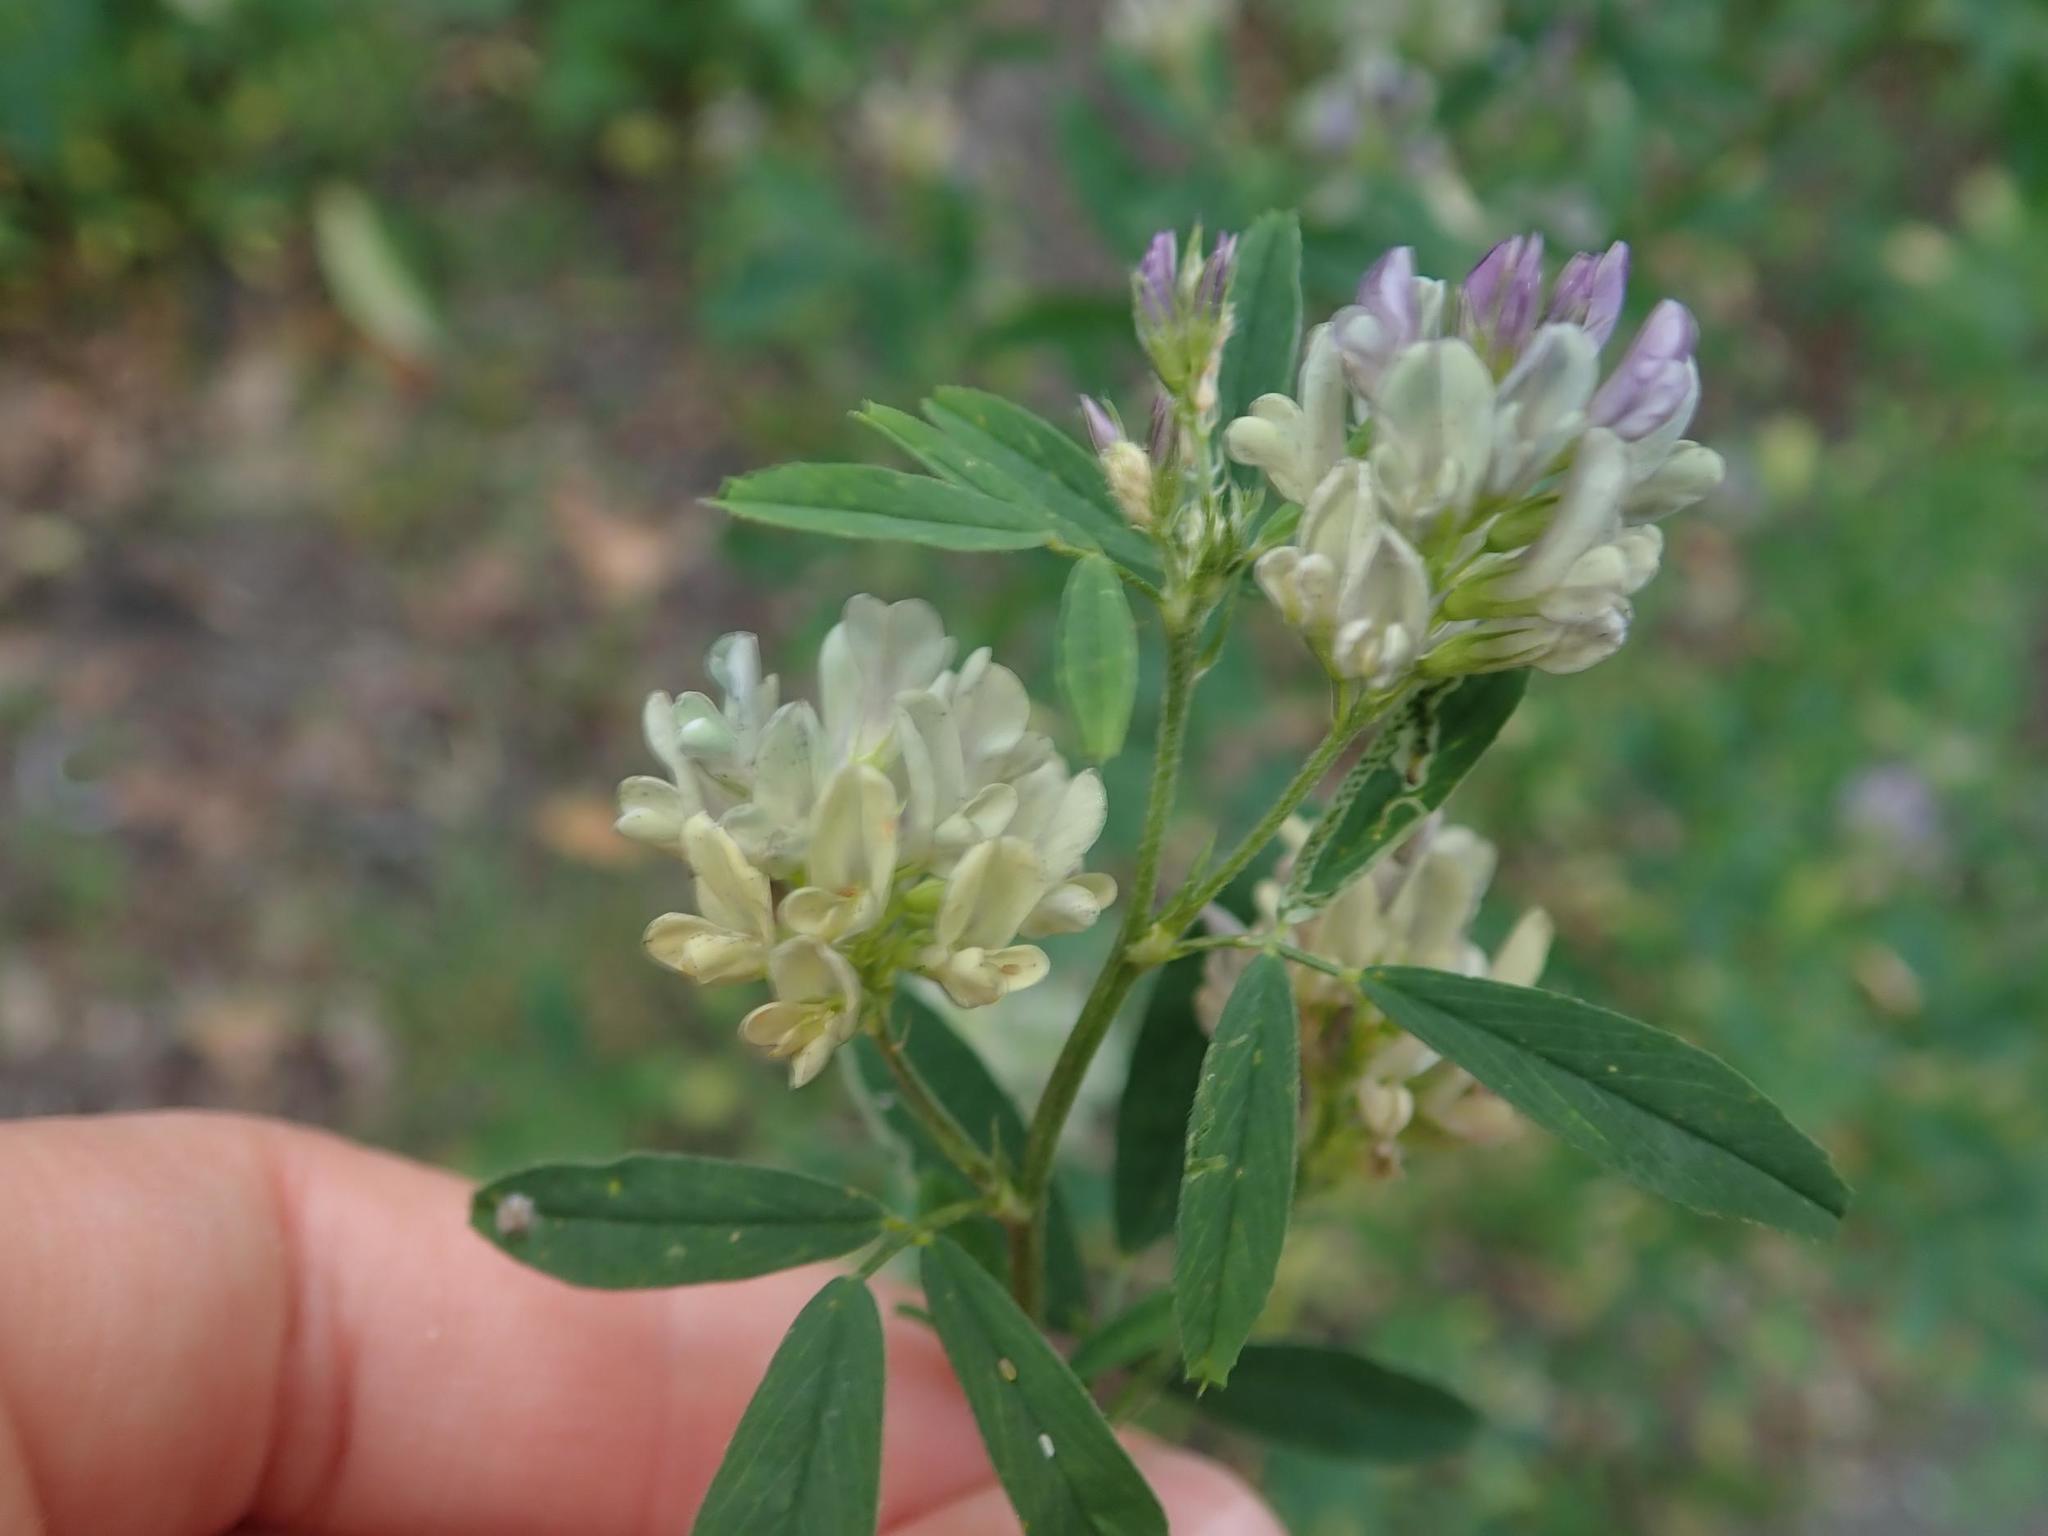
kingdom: Plantae
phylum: Tracheophyta
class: Magnoliopsida
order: Fabales
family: Fabaceae
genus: Medicago
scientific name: Medicago varia
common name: Sand lucerne
